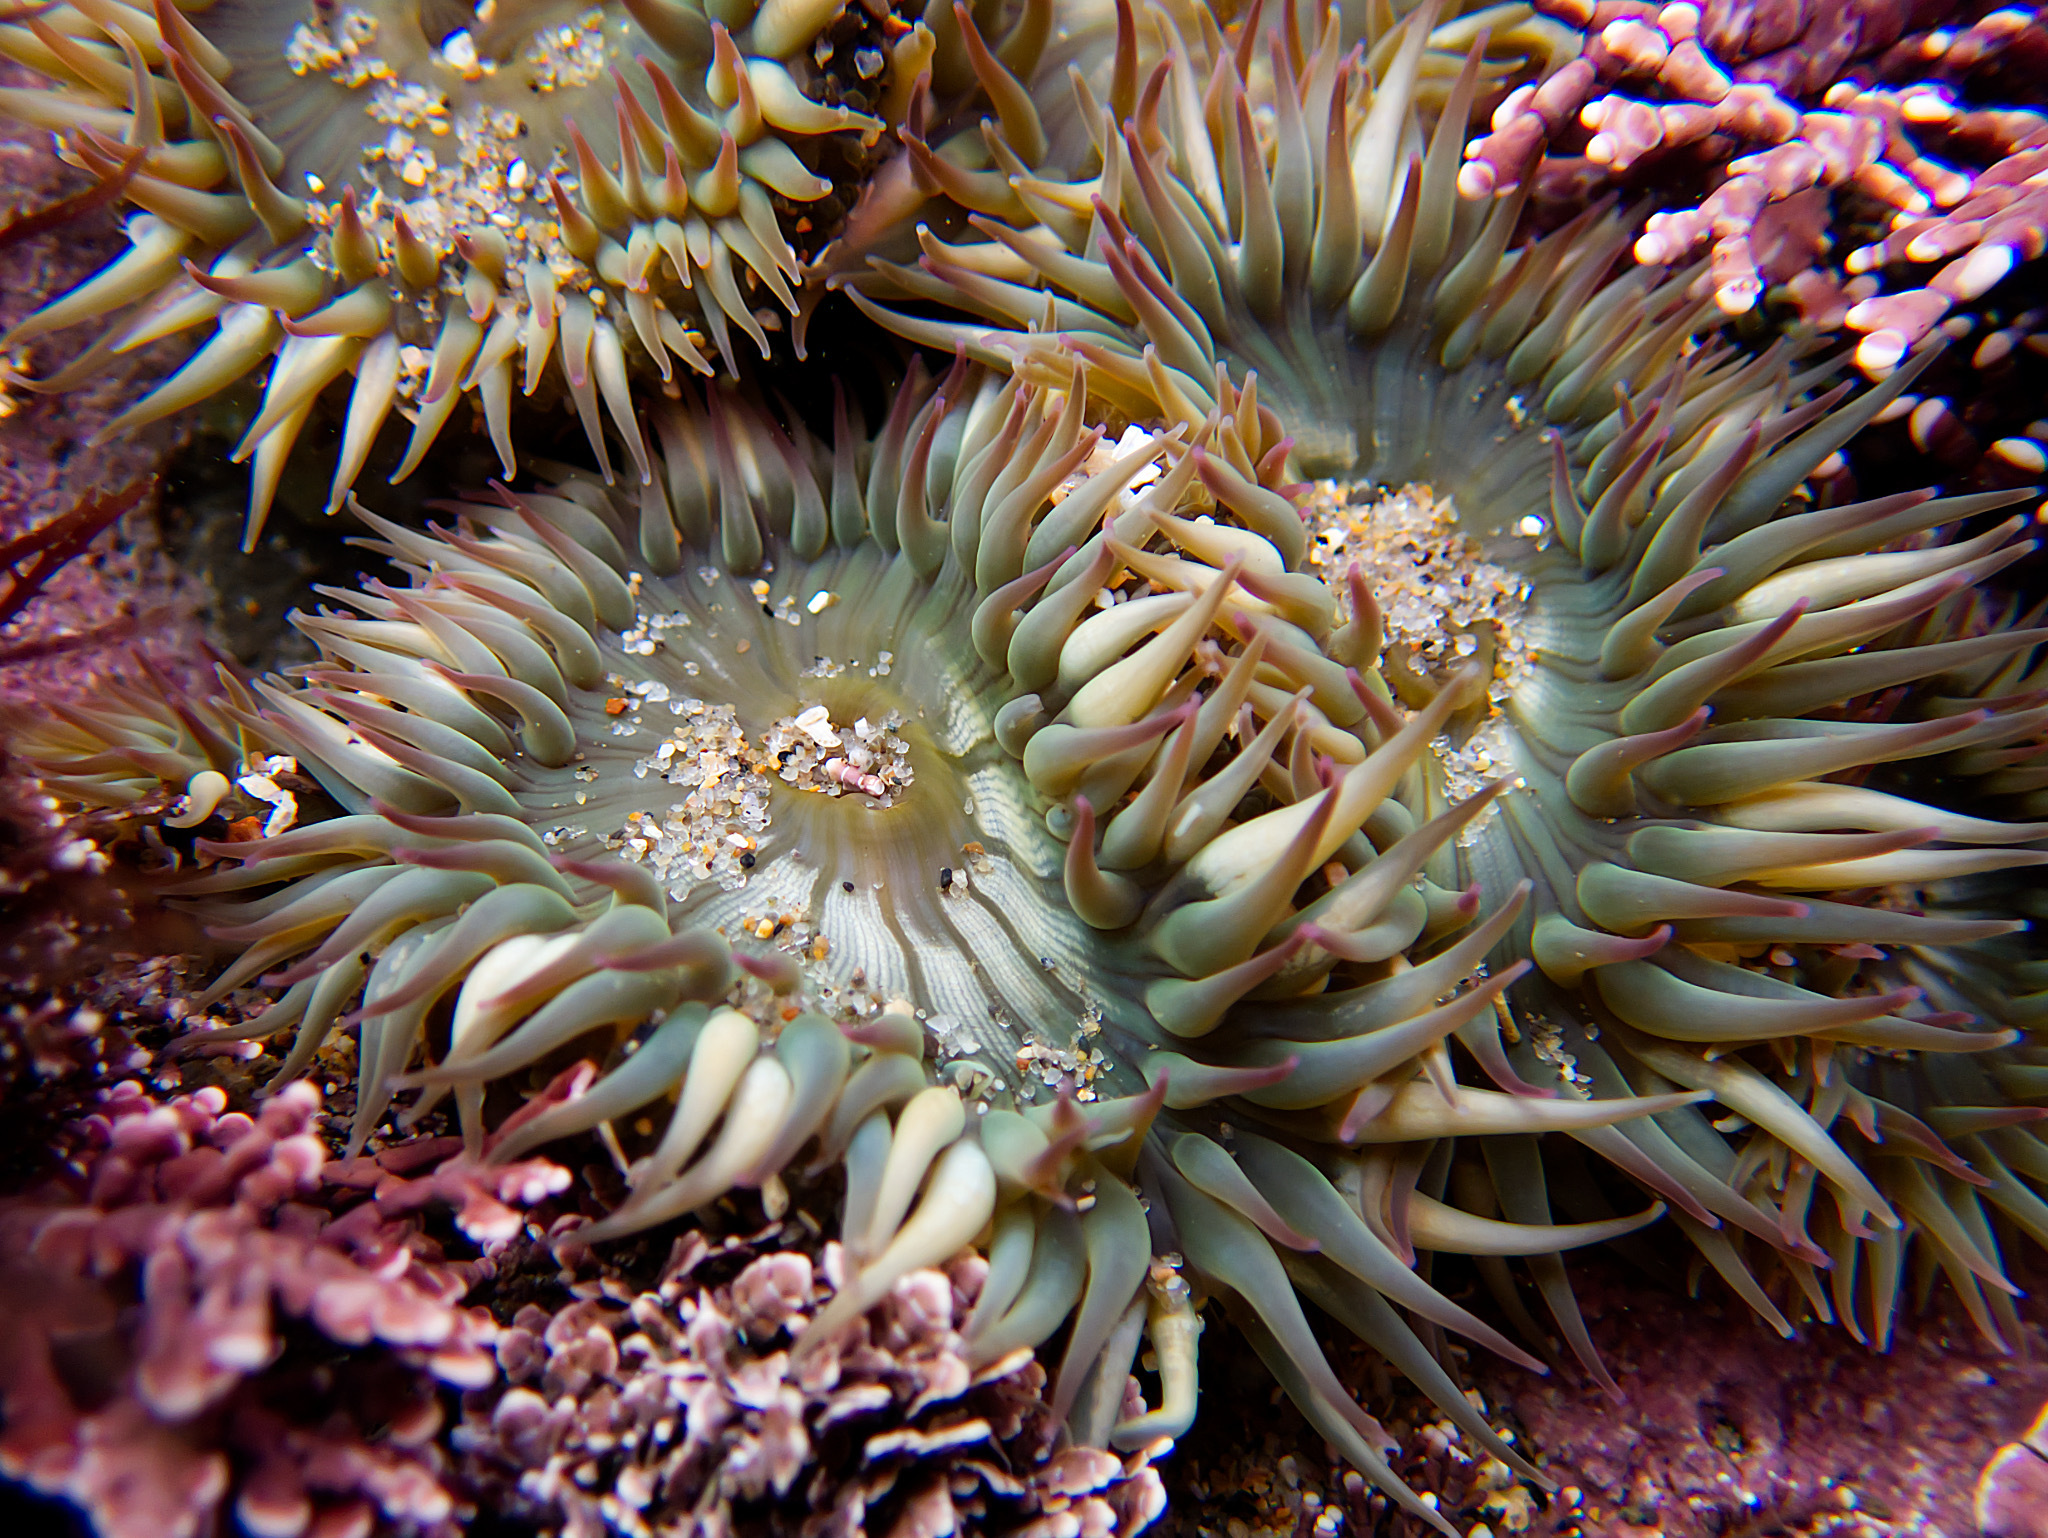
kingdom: Animalia
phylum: Cnidaria
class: Anthozoa
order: Actiniaria
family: Actiniidae
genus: Anthopleura
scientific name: Anthopleura elegantissima
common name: Clonal anemone
